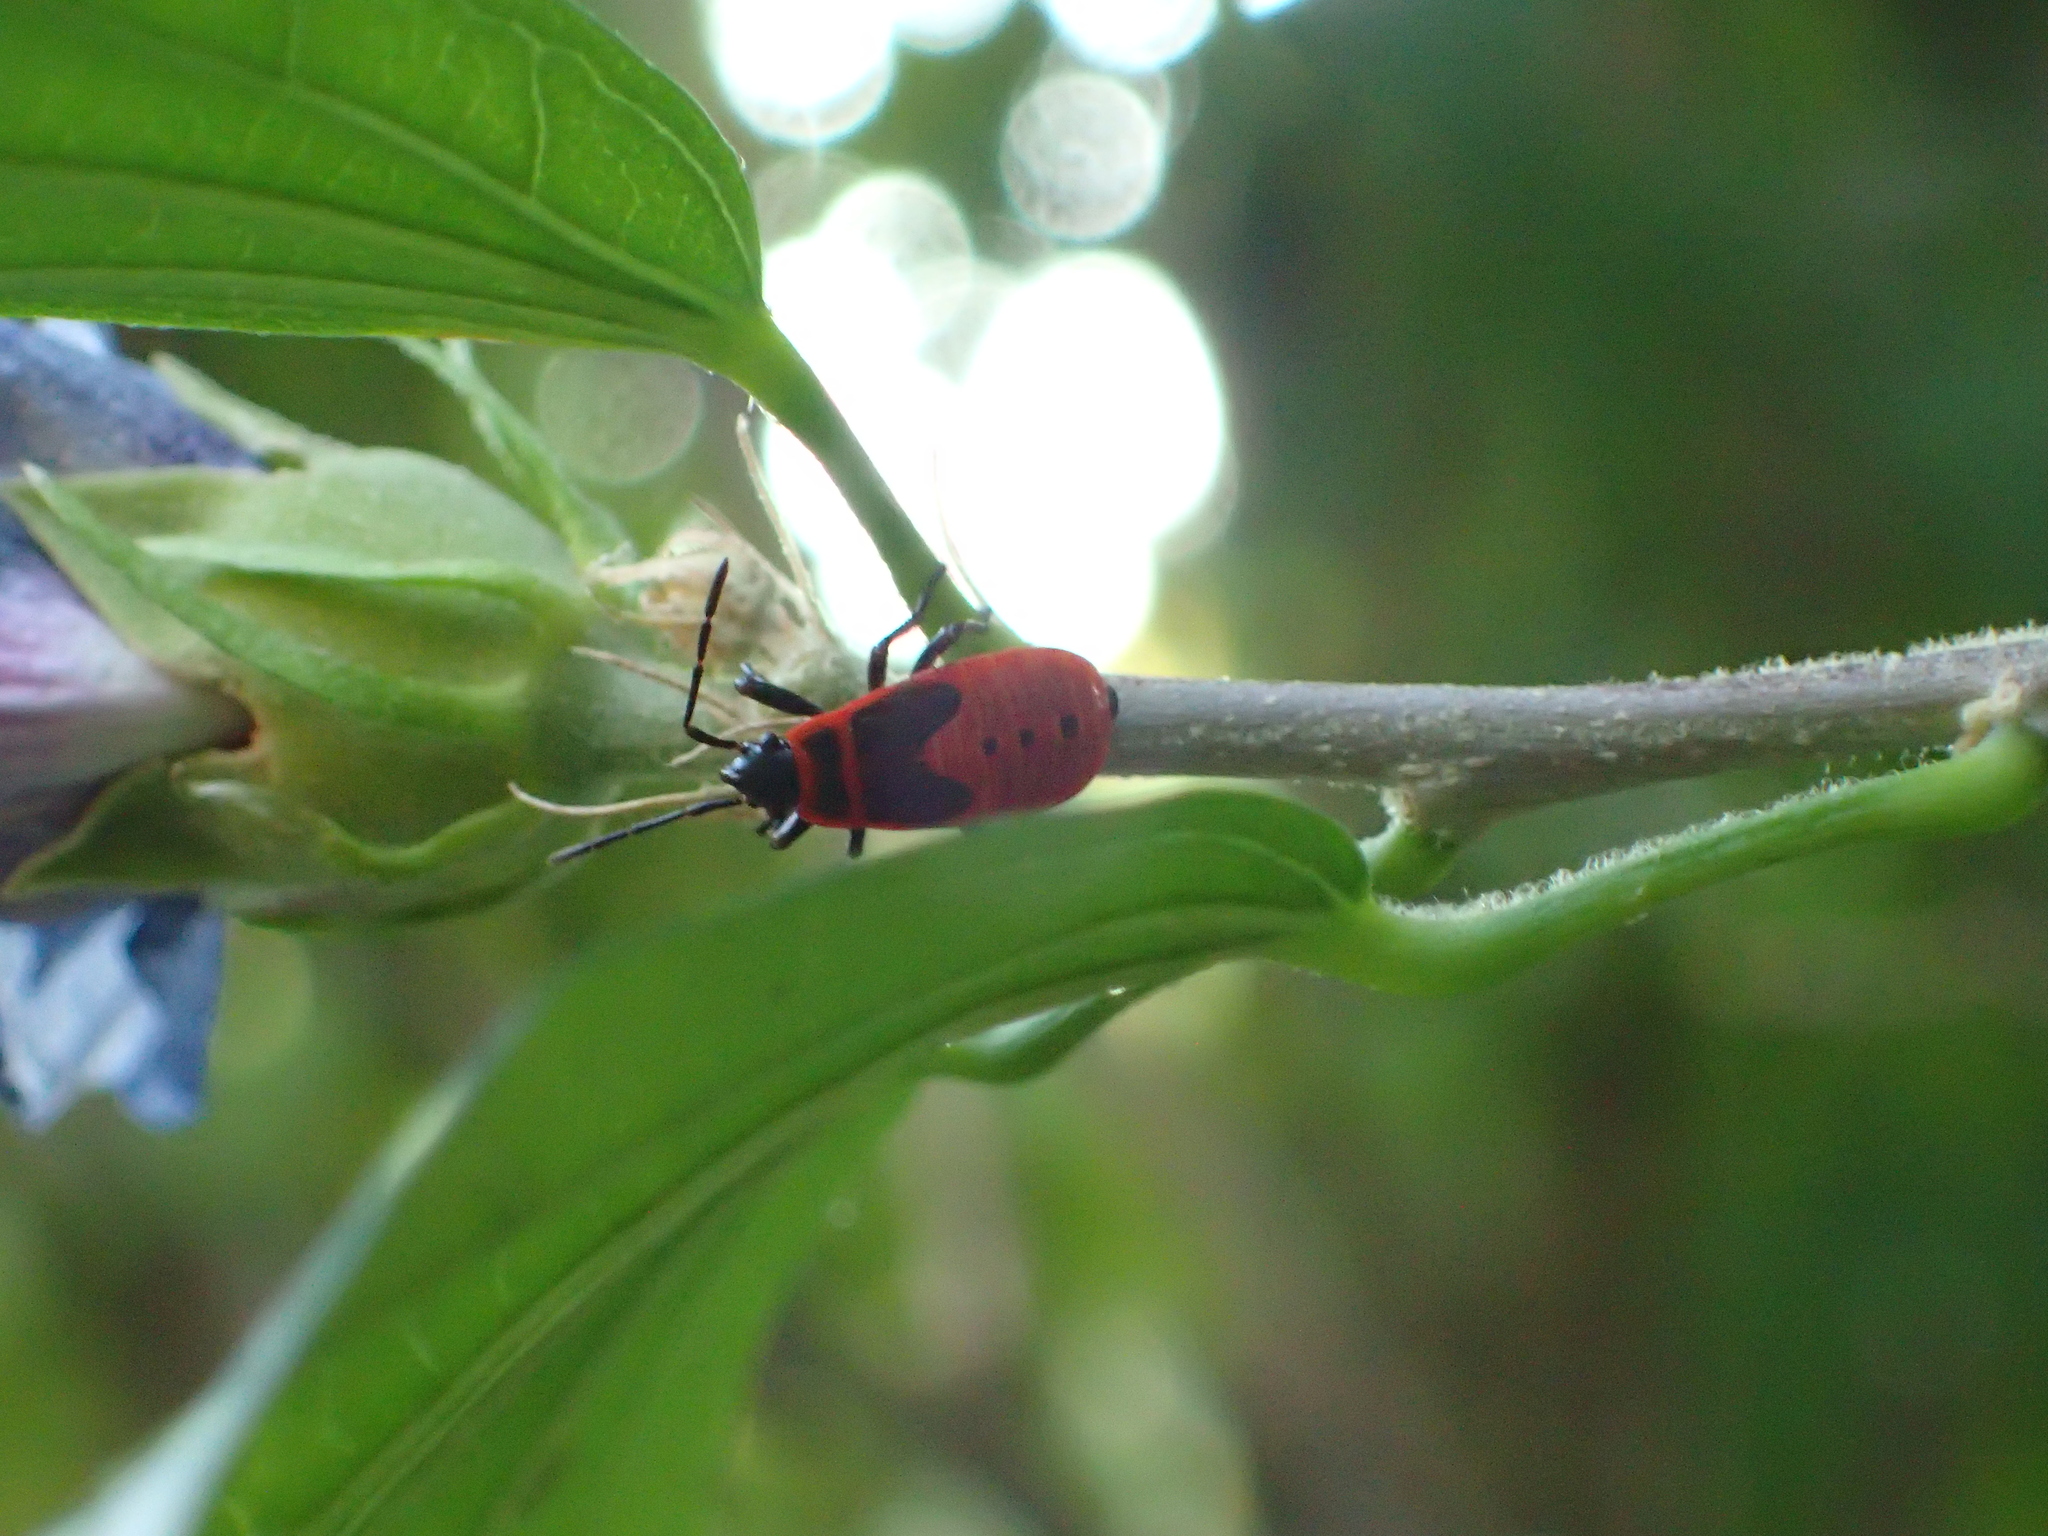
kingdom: Animalia
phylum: Arthropoda
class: Insecta
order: Hemiptera
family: Pyrrhocoridae
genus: Pyrrhocoris
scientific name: Pyrrhocoris apterus
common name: Firebug
